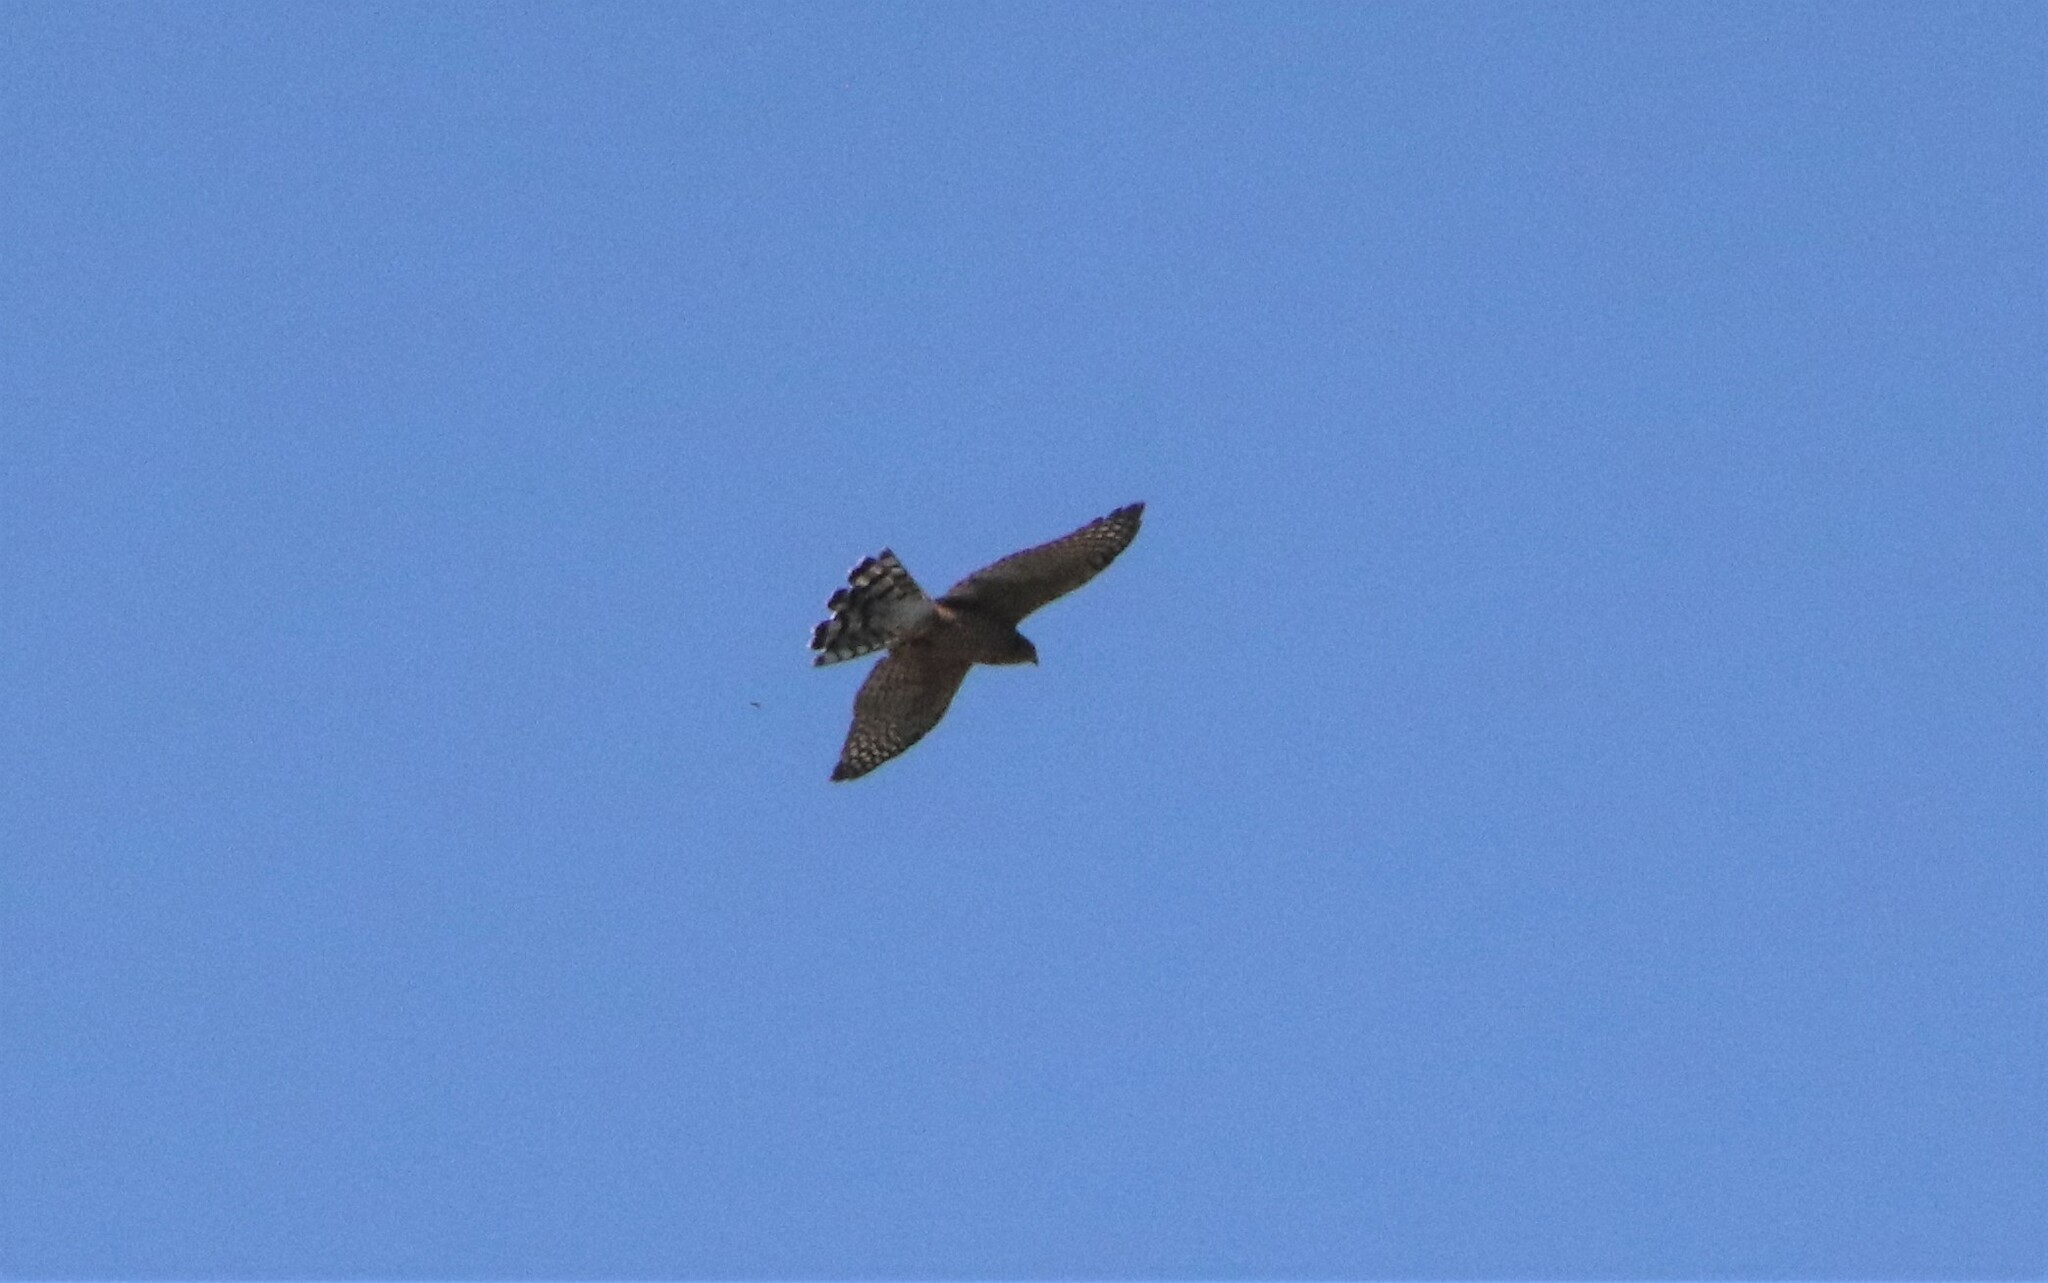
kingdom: Animalia
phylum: Chordata
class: Aves
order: Accipitriformes
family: Accipitridae
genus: Accipiter
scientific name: Accipiter cooperii
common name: Cooper's hawk
